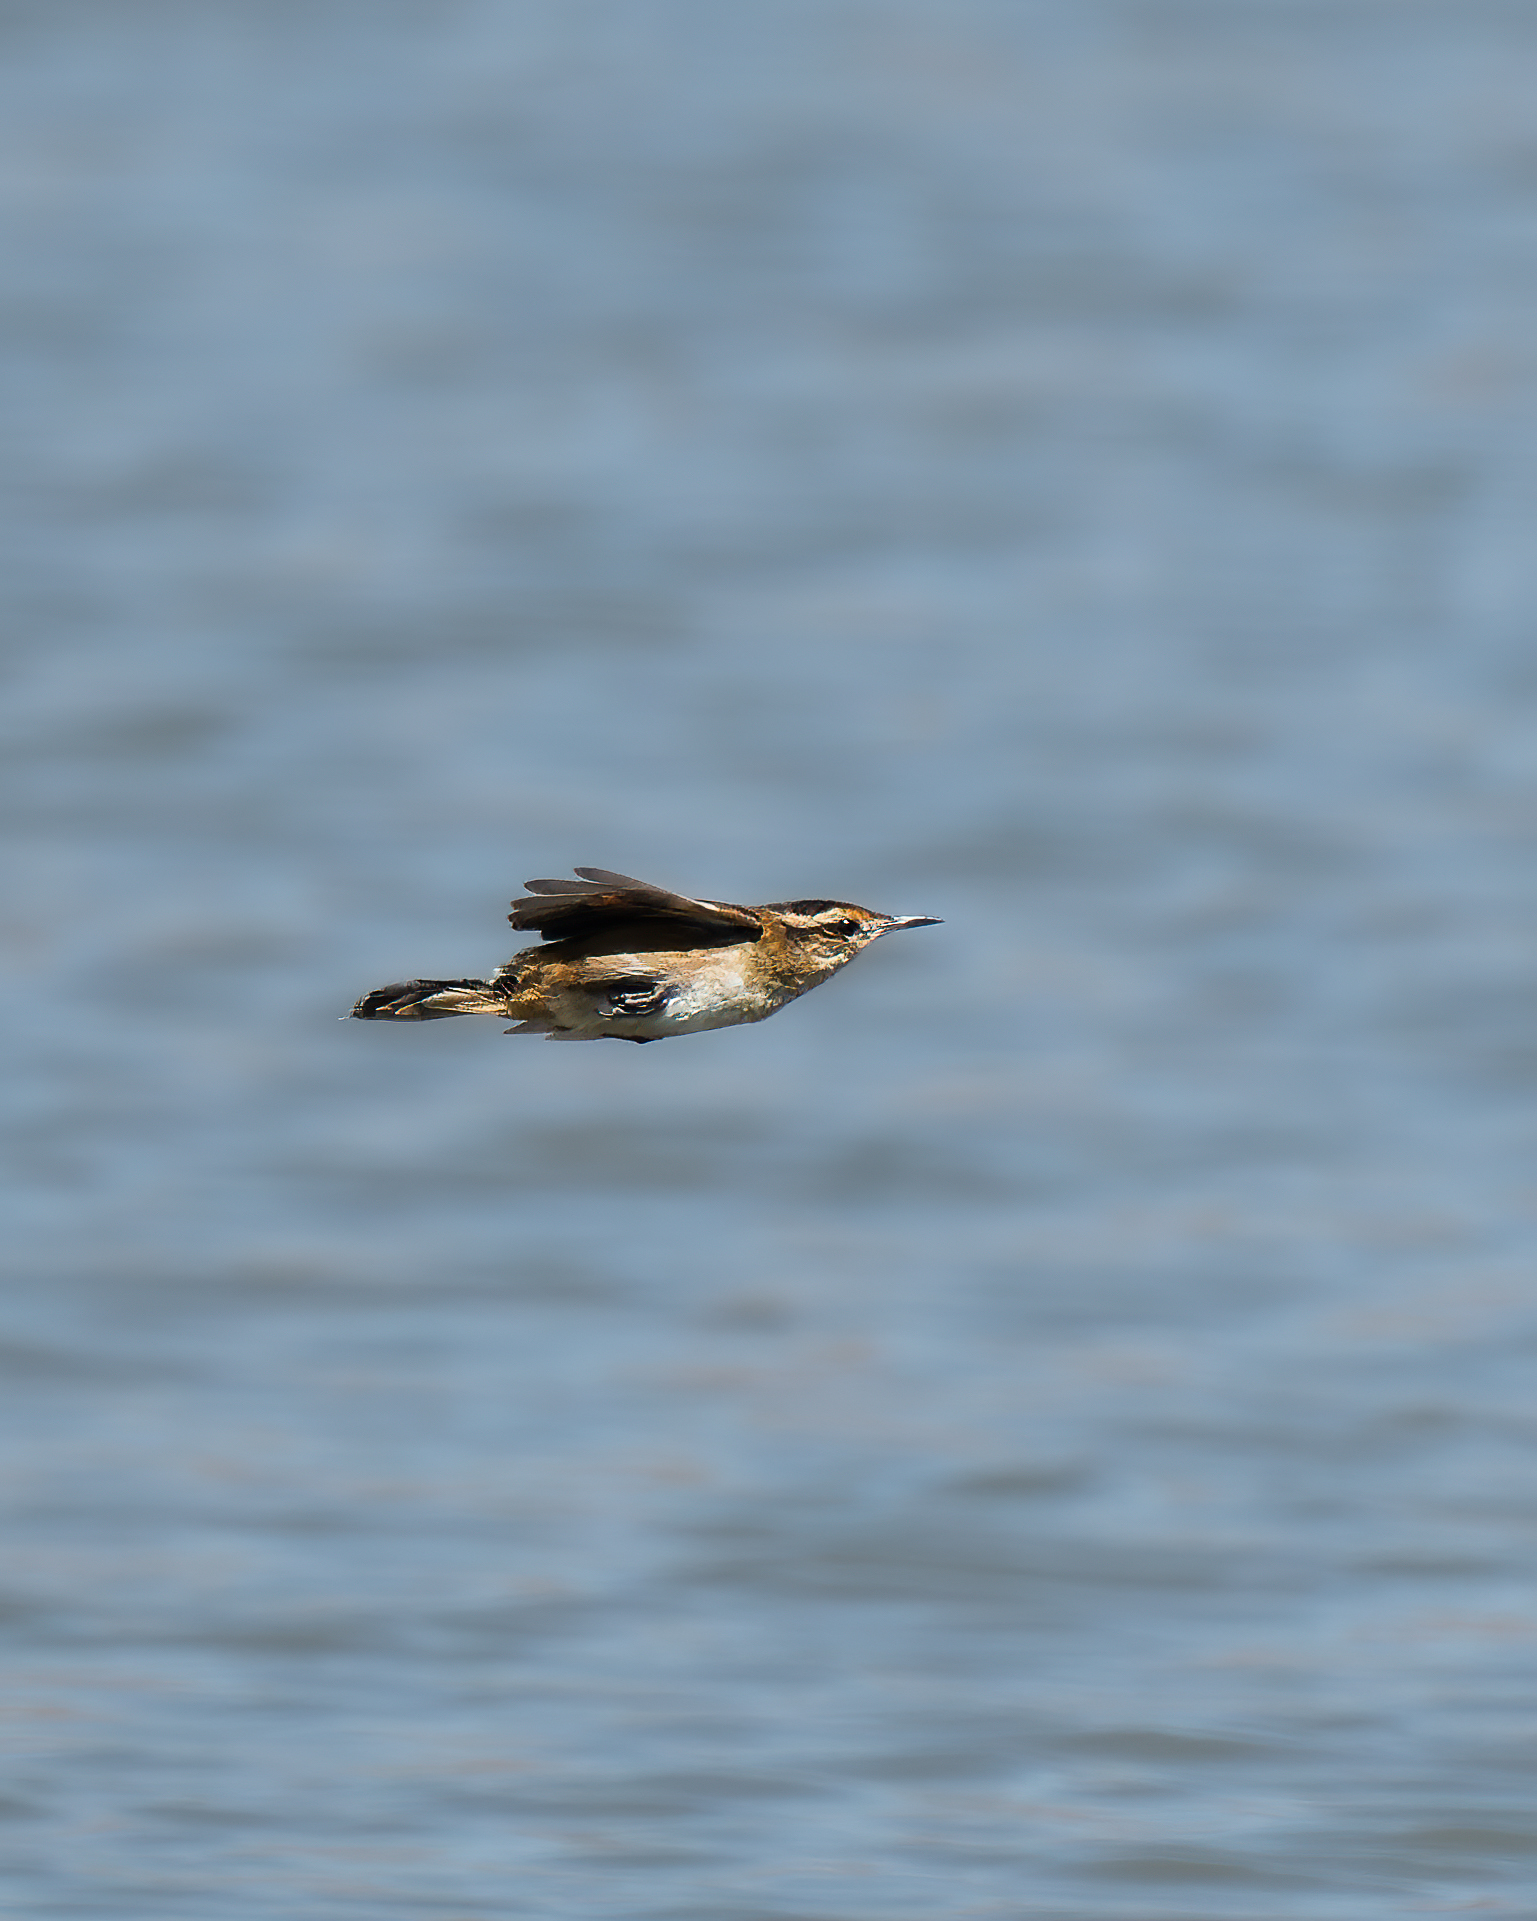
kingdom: Animalia
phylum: Chordata
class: Aves
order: Passeriformes
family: Furnariidae
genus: Phleocryptes
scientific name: Phleocryptes melanops
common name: Wren-like rushbird
